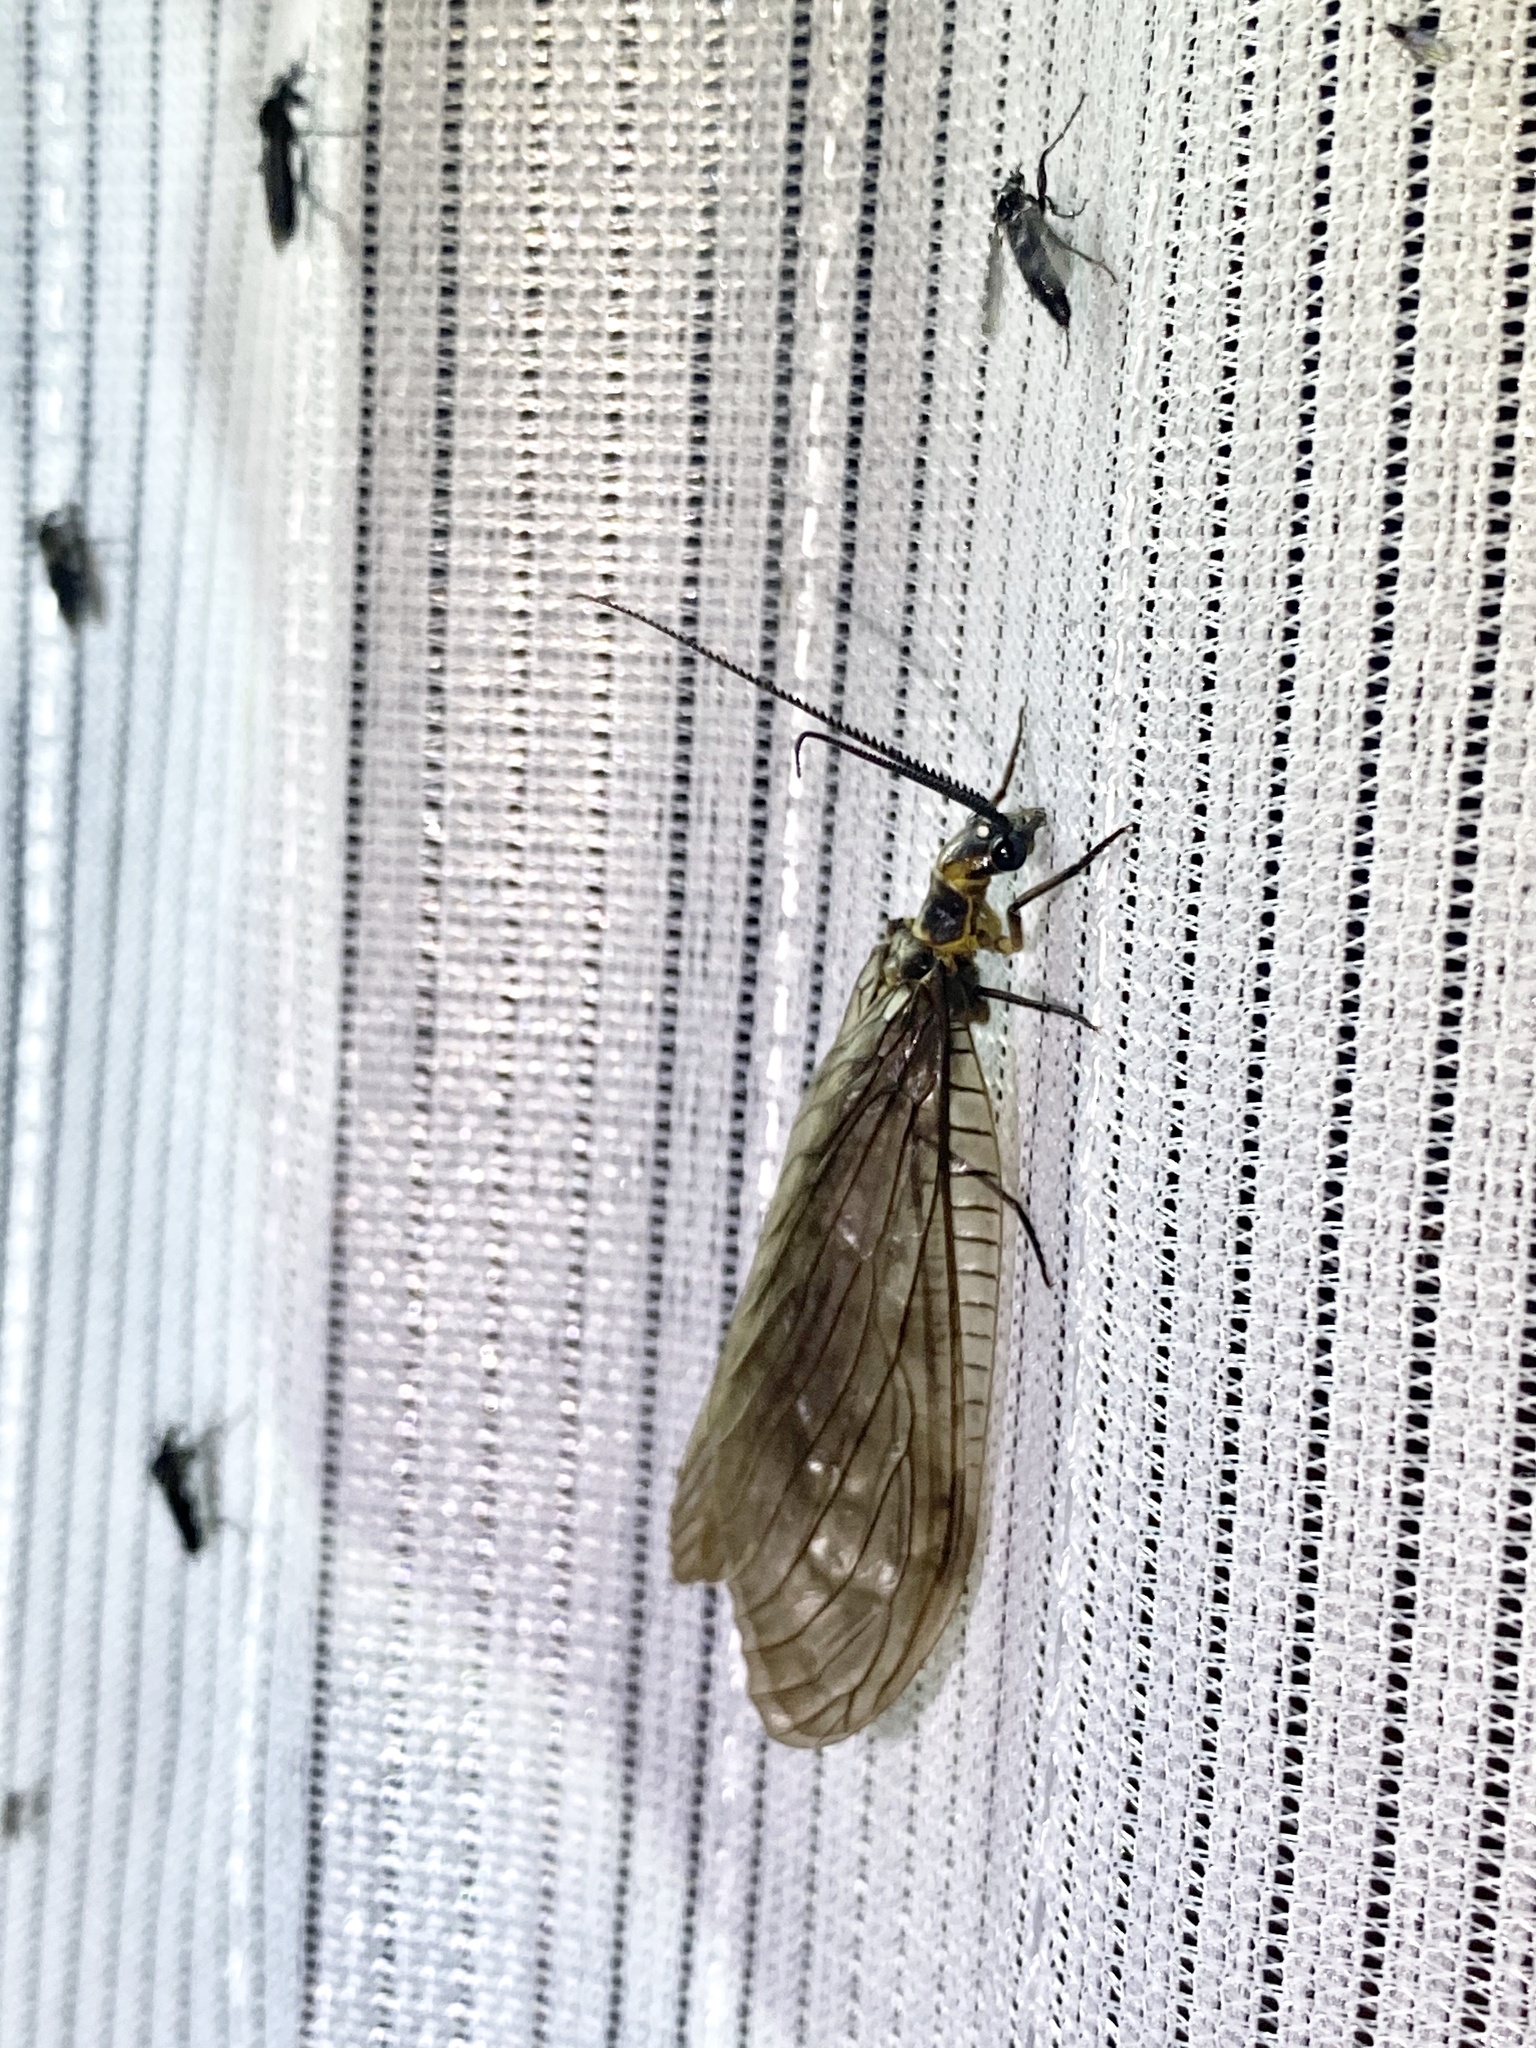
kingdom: Animalia
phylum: Arthropoda
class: Insecta
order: Megaloptera
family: Corydalidae
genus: Parachauliodes
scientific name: Parachauliodes japonicus
